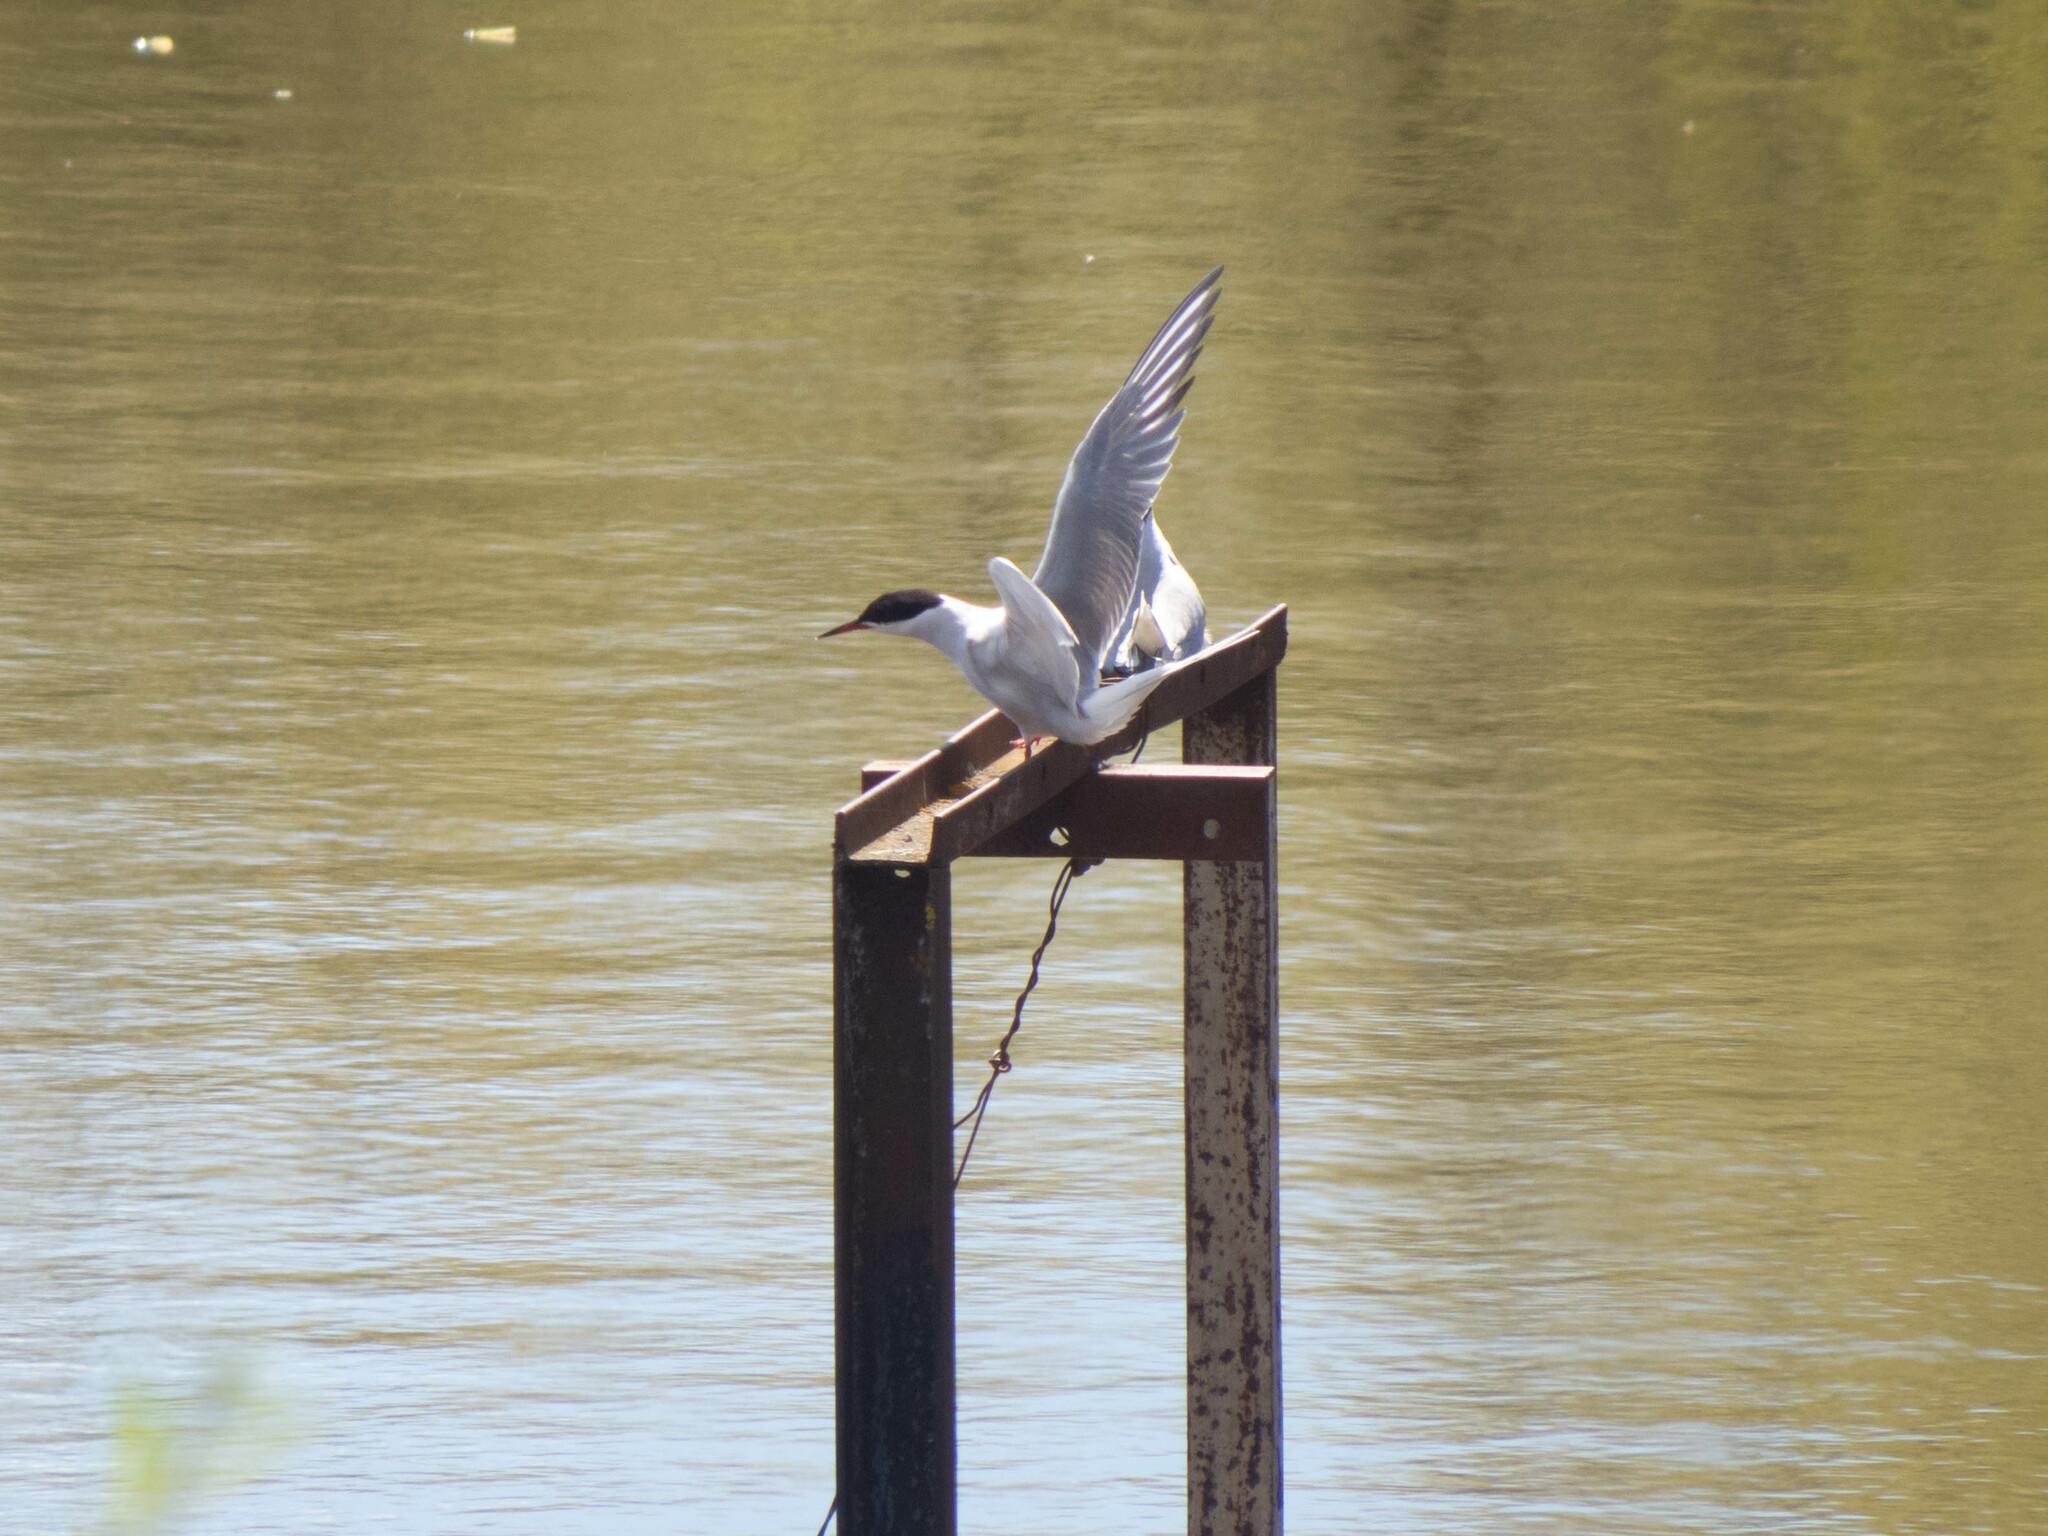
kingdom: Animalia
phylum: Chordata
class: Aves
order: Charadriiformes
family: Laridae
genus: Sterna
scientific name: Sterna hirundo
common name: Common tern
